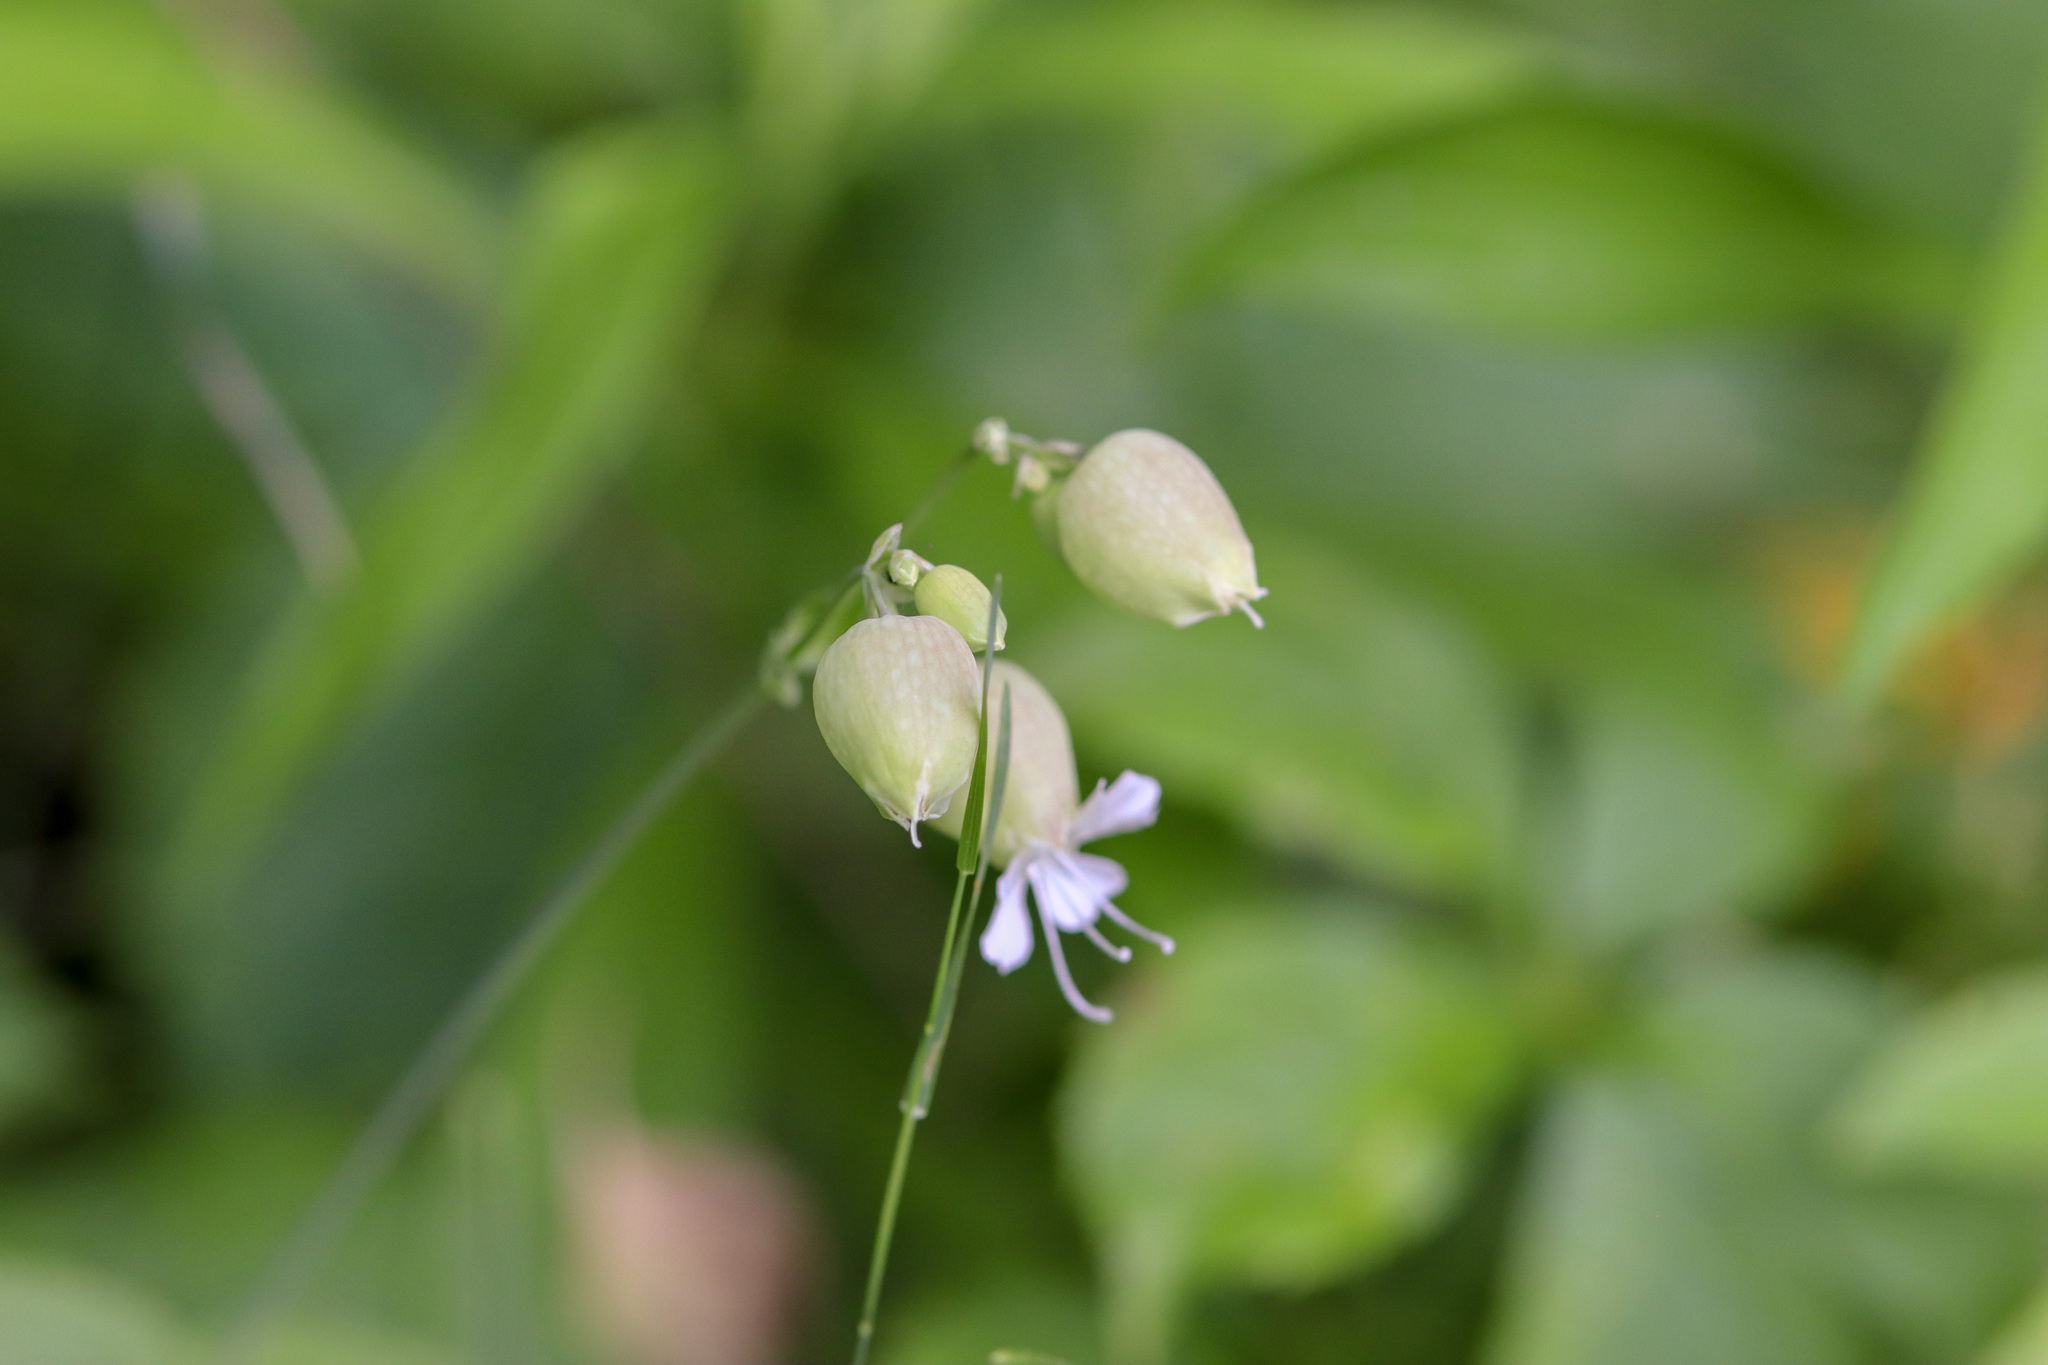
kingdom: Plantae
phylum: Tracheophyta
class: Magnoliopsida
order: Caryophyllales
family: Caryophyllaceae
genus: Silene
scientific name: Silene vulgaris
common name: Bladder campion
